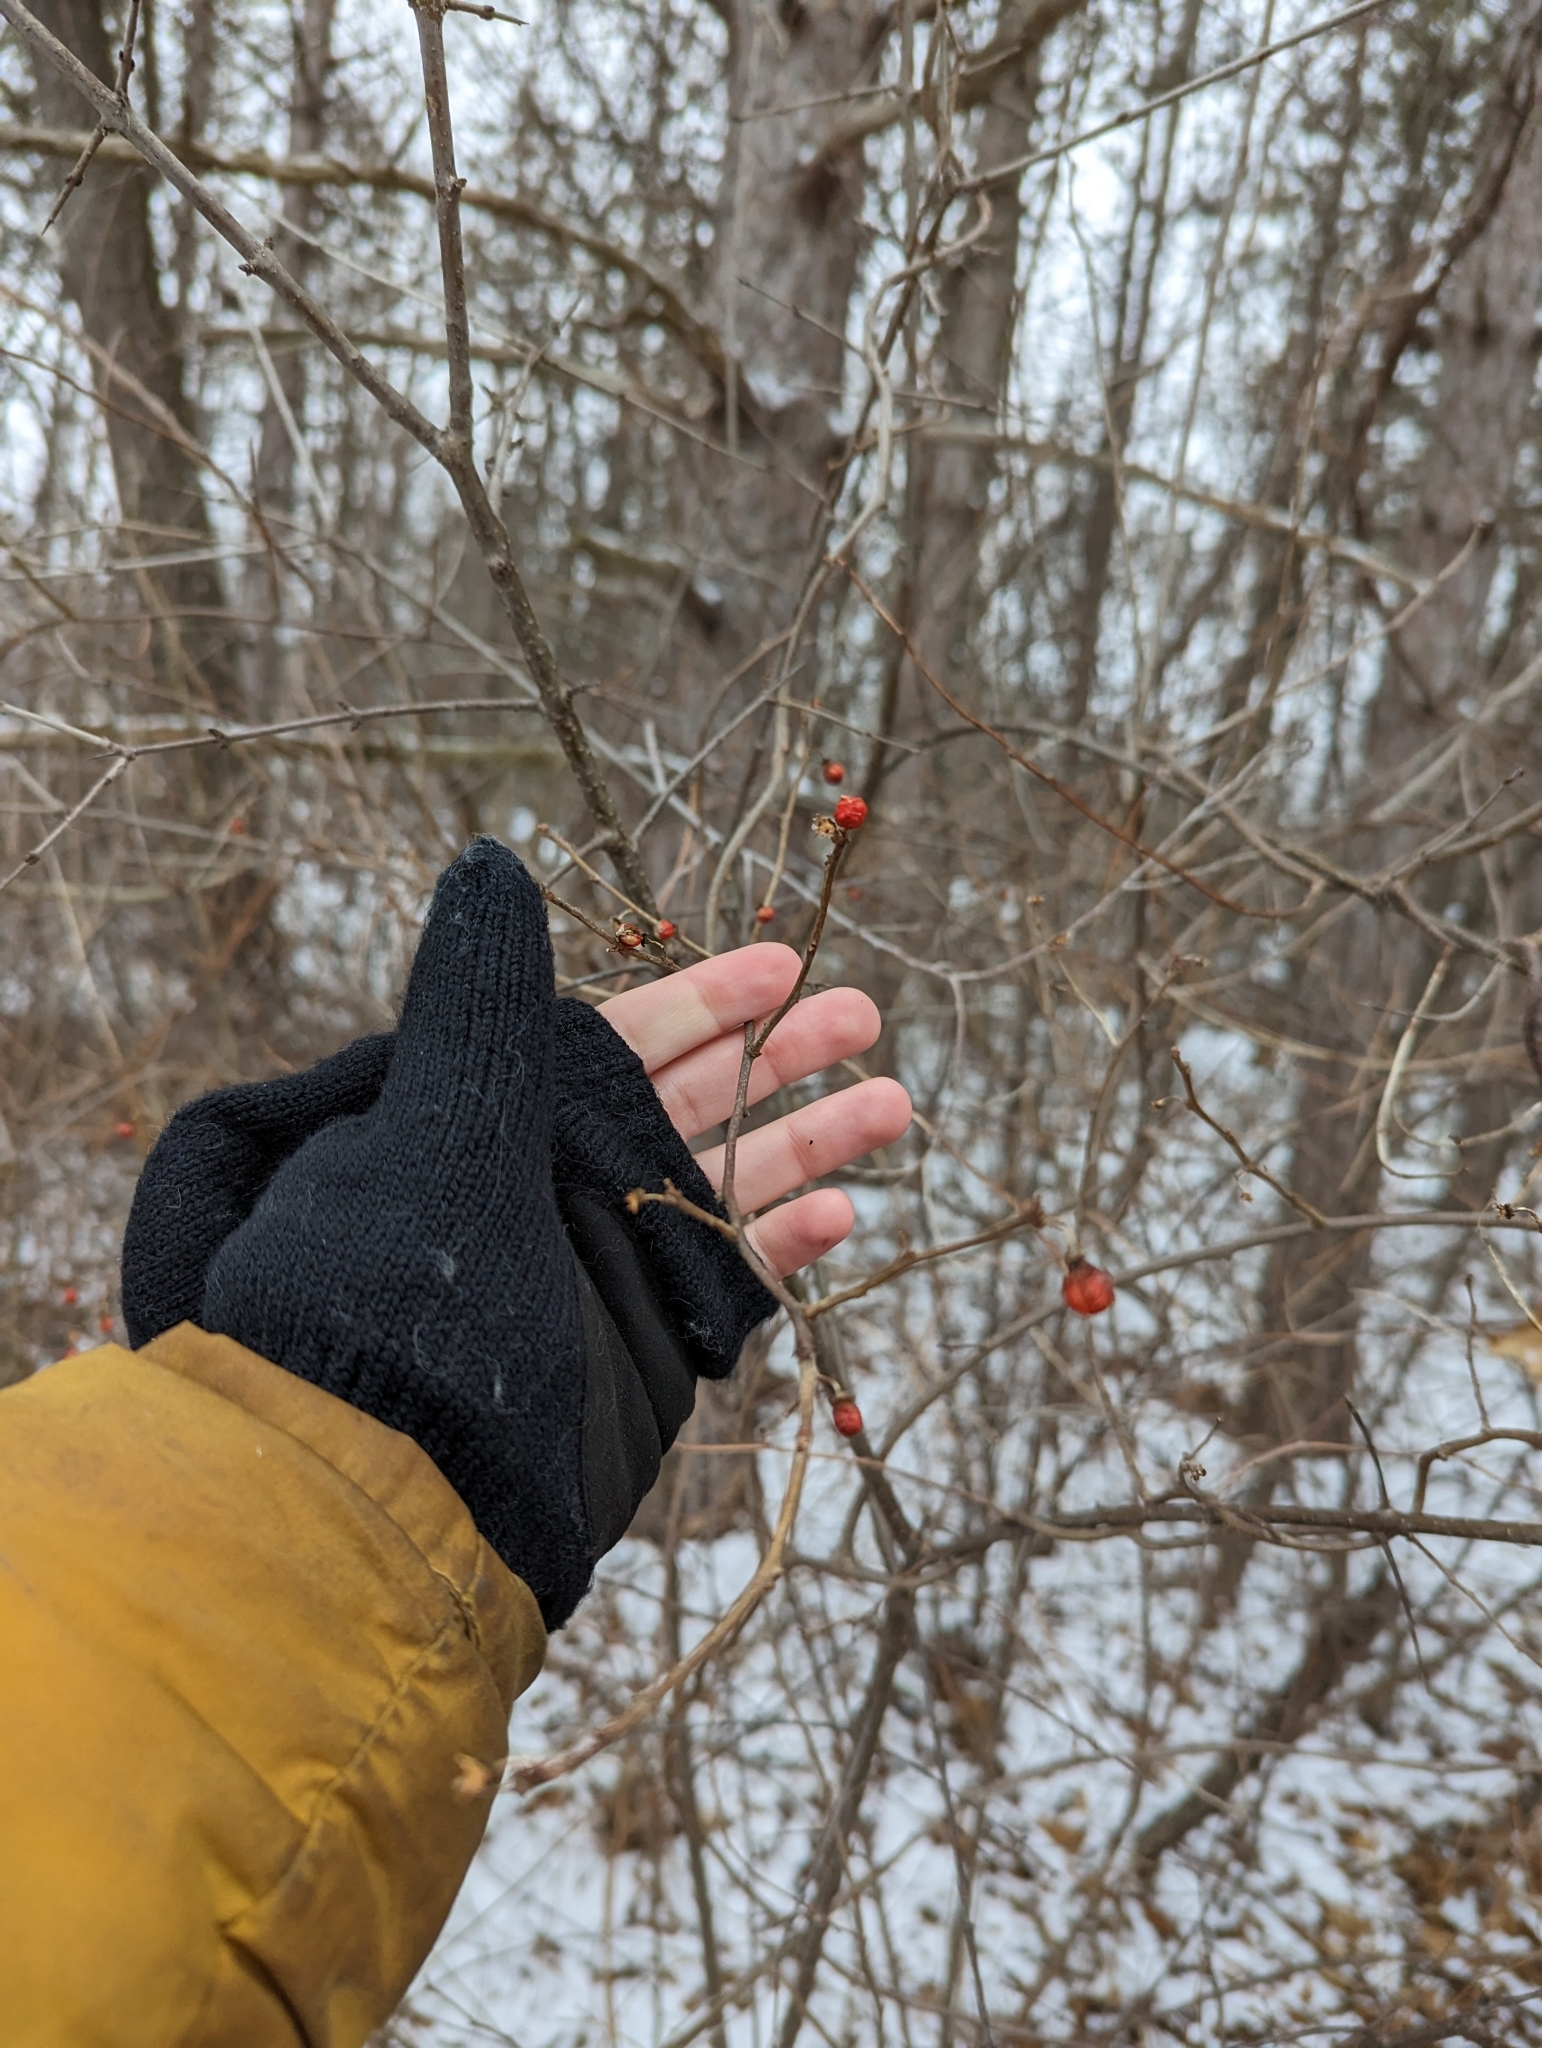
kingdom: Plantae
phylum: Tracheophyta
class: Magnoliopsida
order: Celastrales
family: Celastraceae
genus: Celastrus
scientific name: Celastrus orbiculatus
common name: Oriental bittersweet
